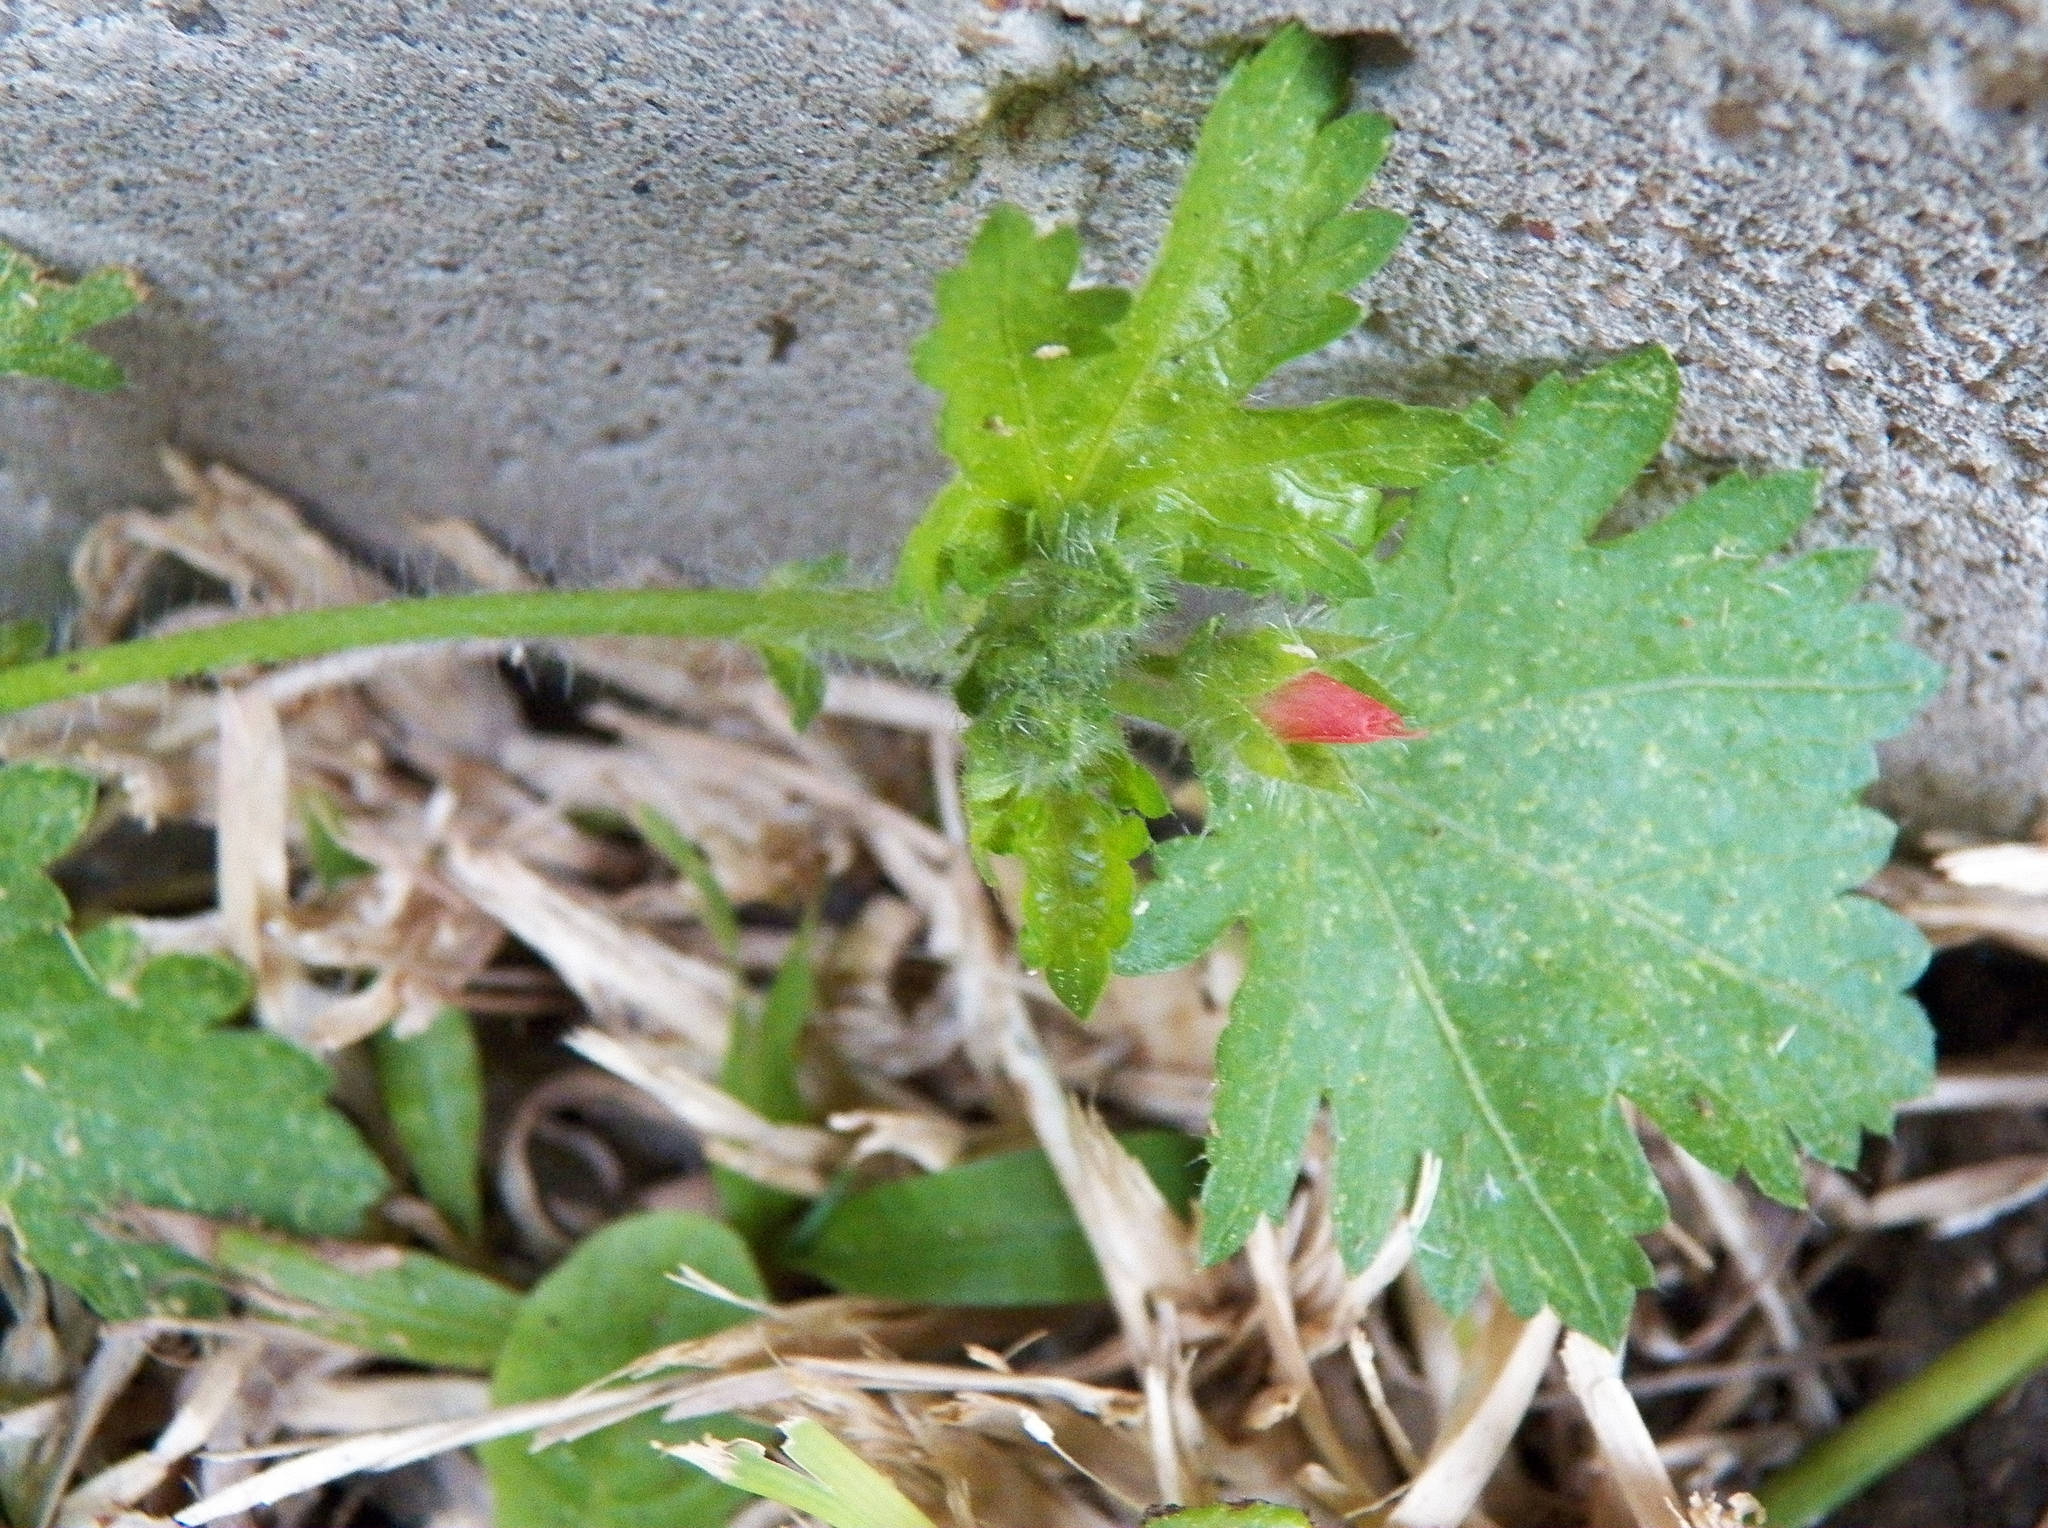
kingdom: Plantae
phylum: Tracheophyta
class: Magnoliopsida
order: Malvales
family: Malvaceae
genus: Modiola
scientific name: Modiola caroliniana
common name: Carolina bristlemallow
